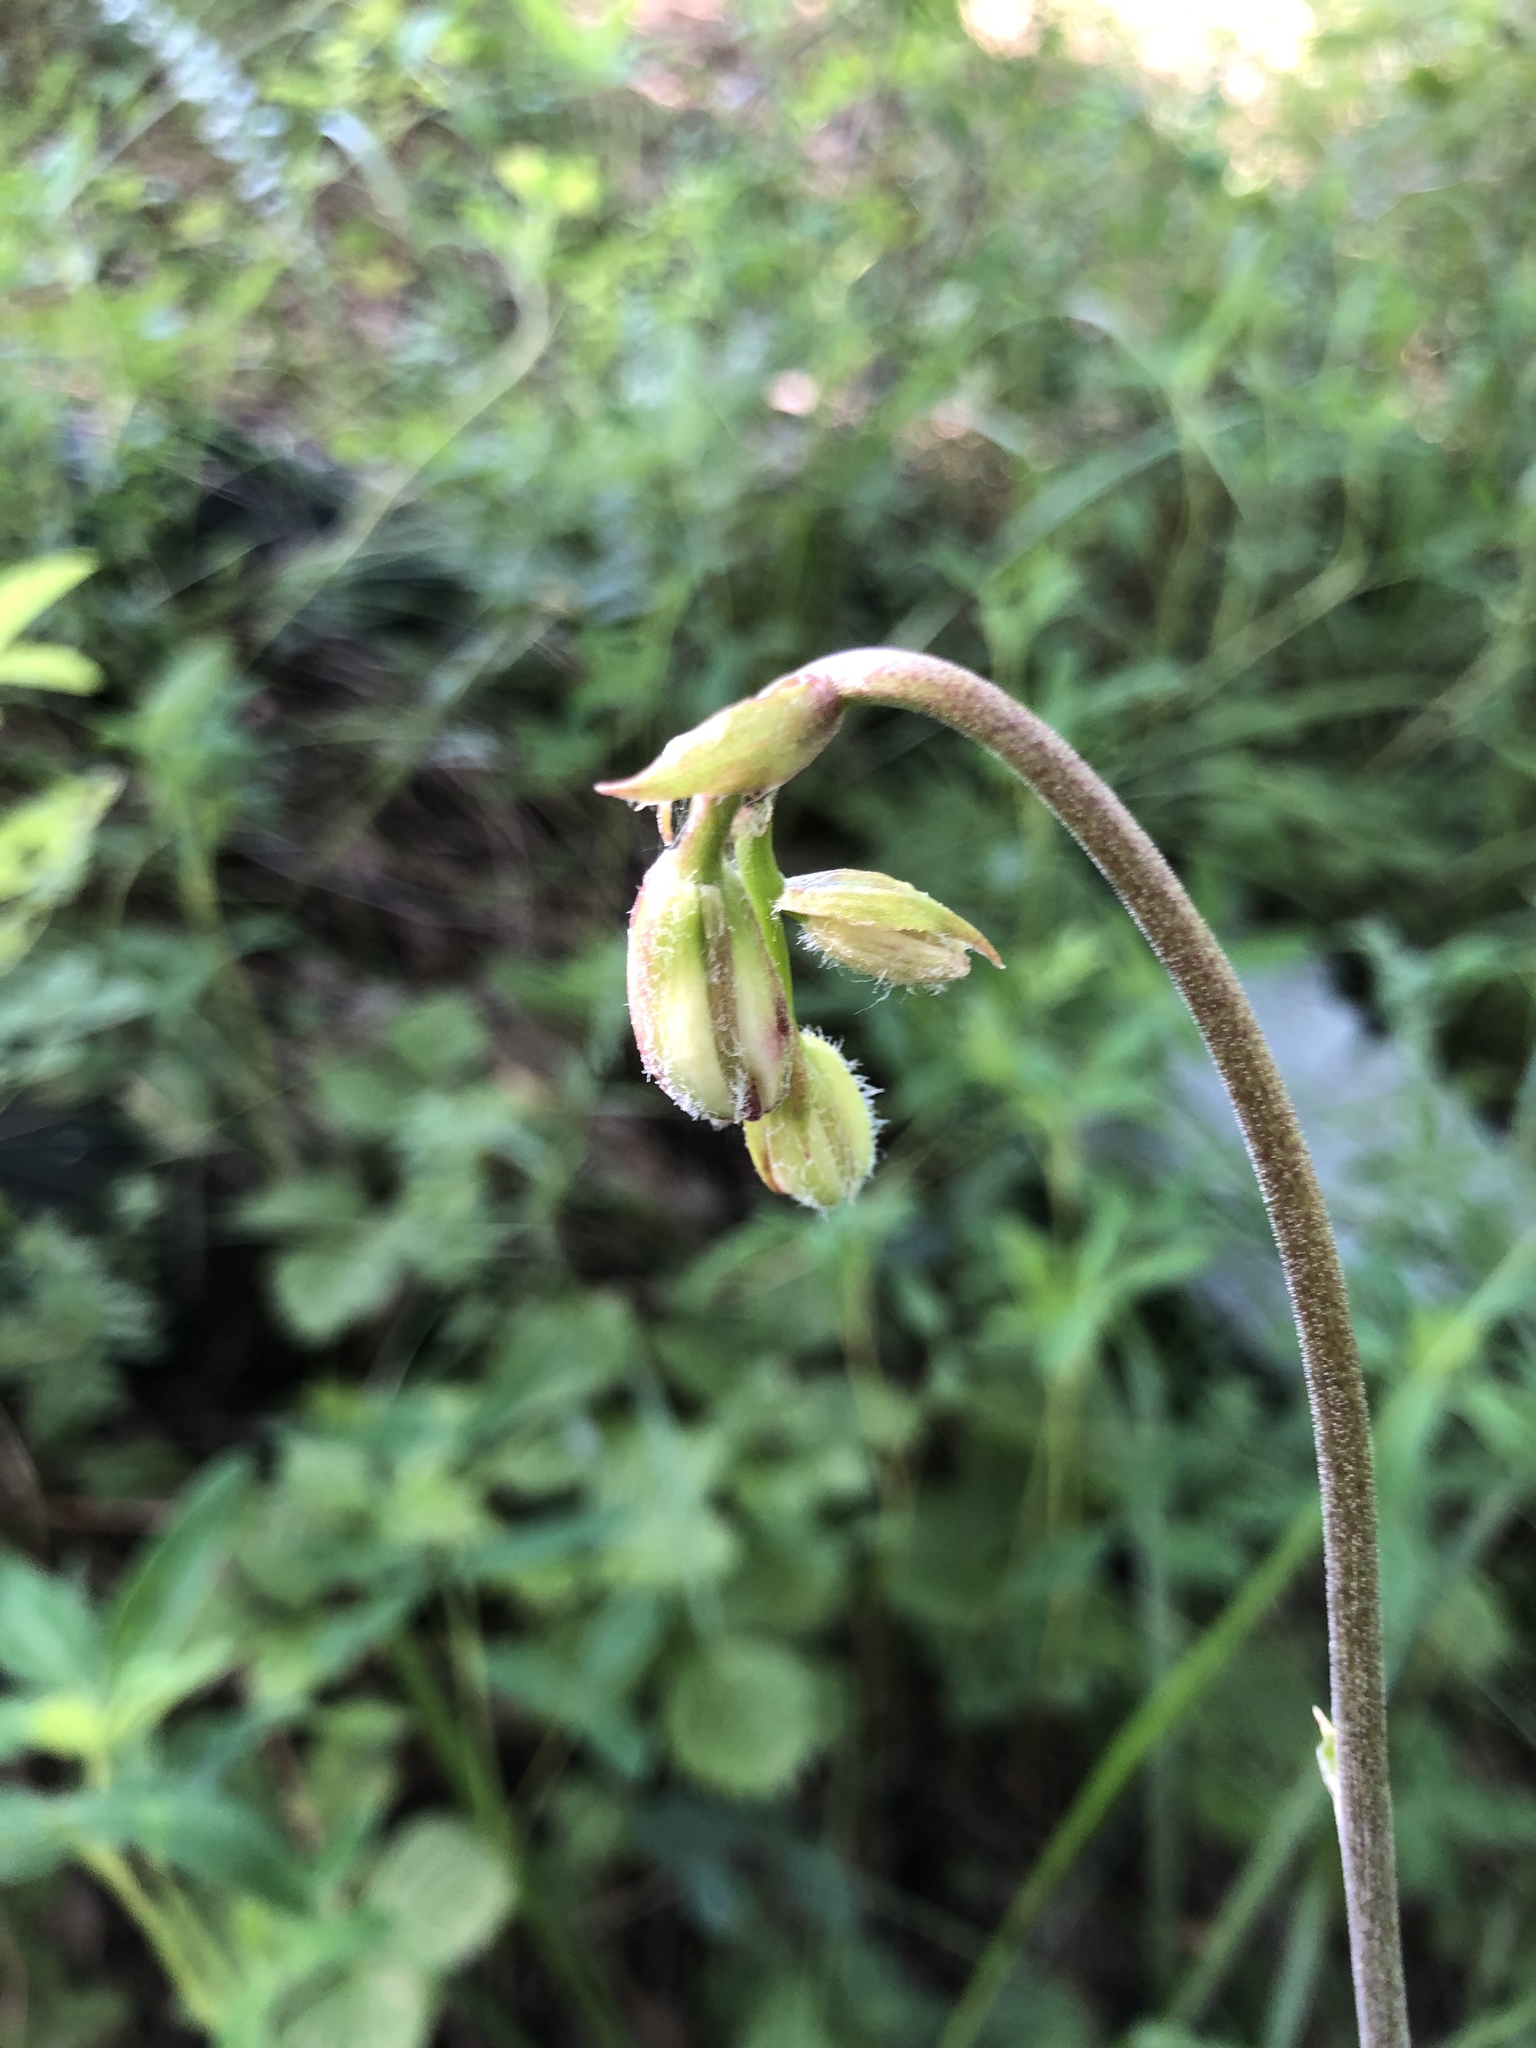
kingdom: Plantae
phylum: Tracheophyta
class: Liliopsida
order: Liliales
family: Liliaceae
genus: Lilium
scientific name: Lilium martagon
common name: Martagon lily
